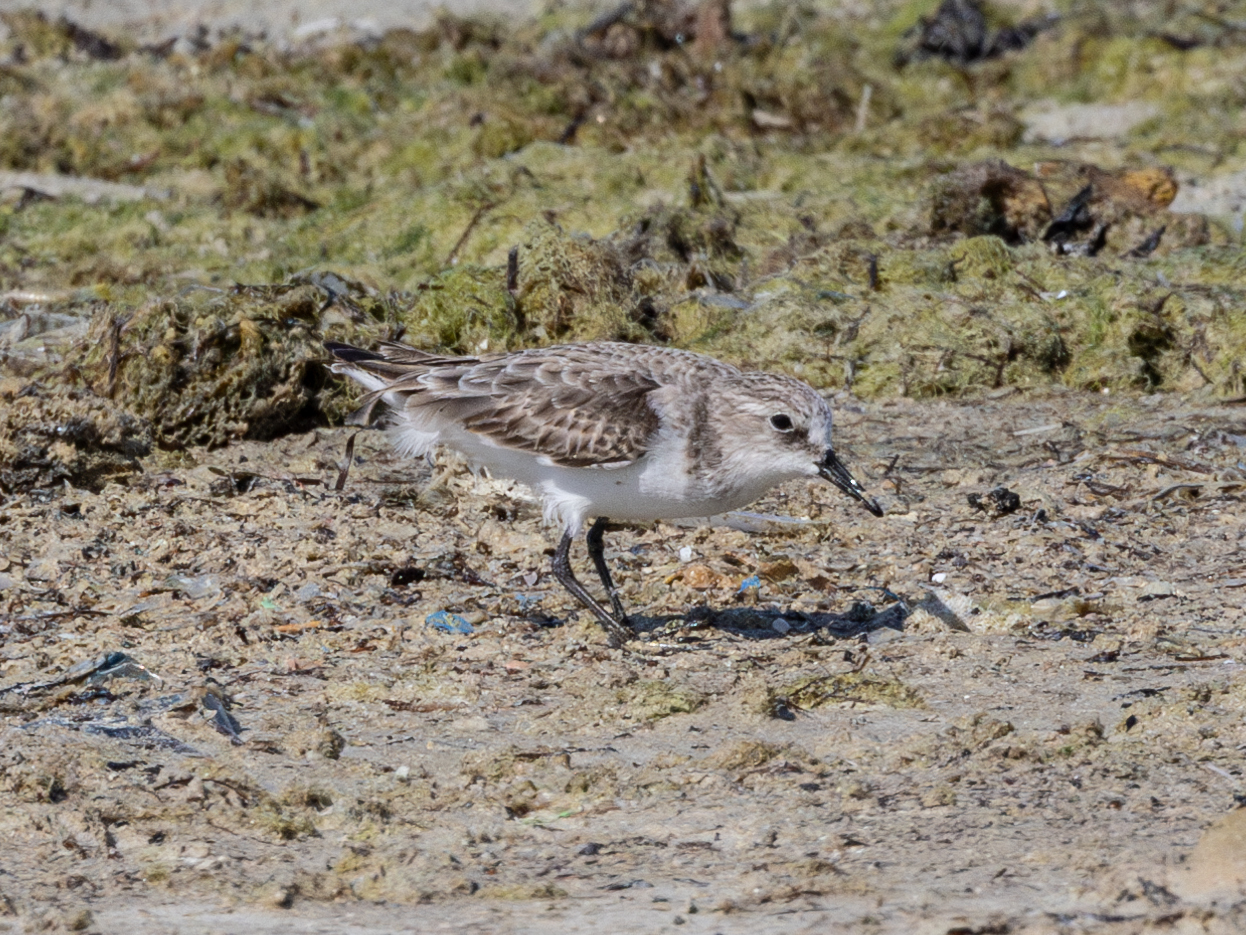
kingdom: Animalia
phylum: Chordata
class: Aves
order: Charadriiformes
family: Scolopacidae
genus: Calidris
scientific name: Calidris minuta
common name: Little stint
